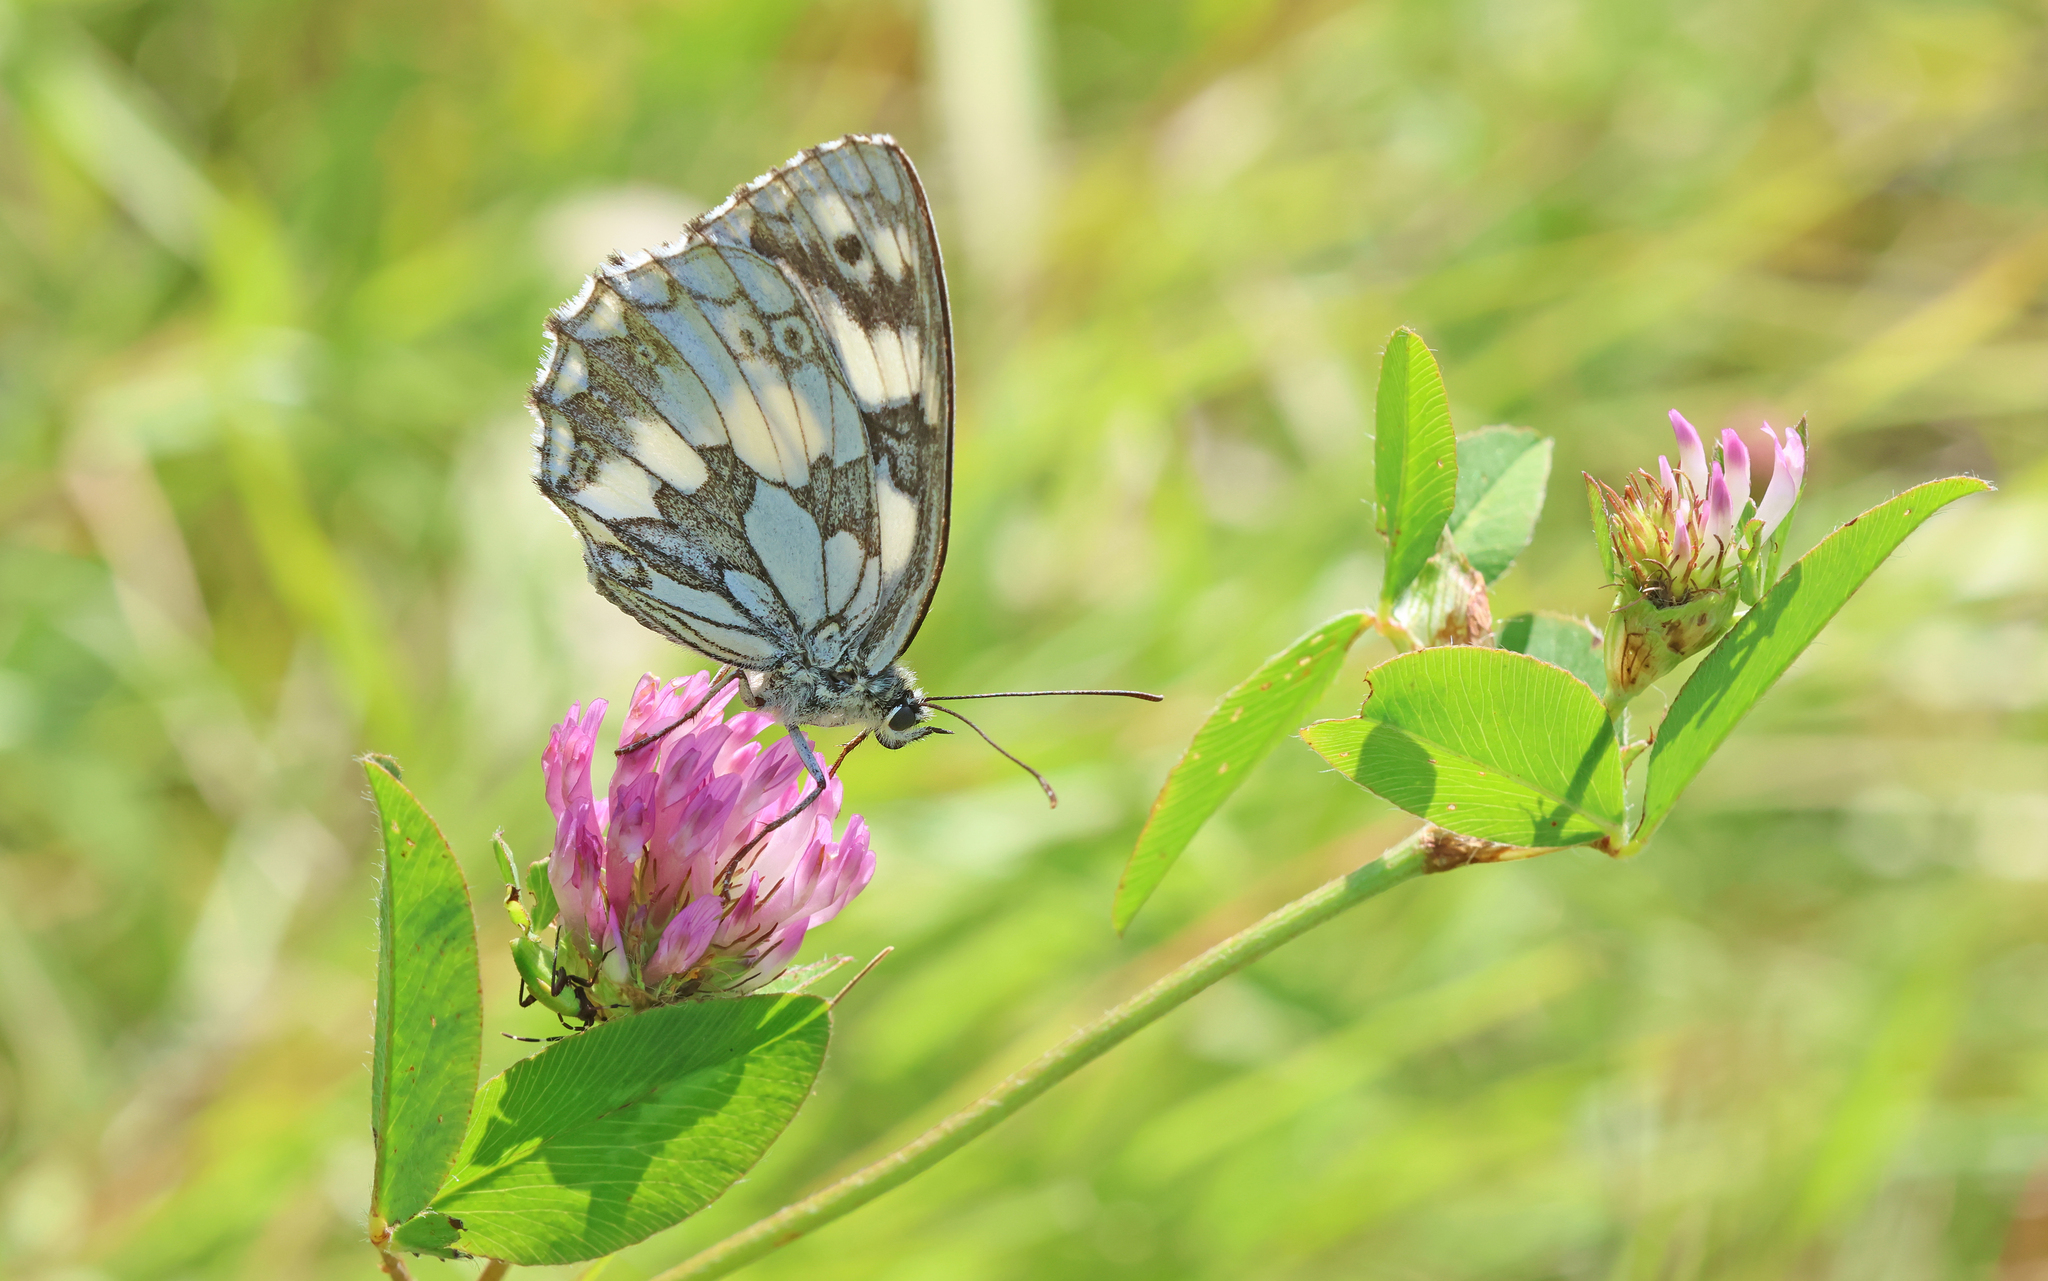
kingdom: Animalia
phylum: Arthropoda
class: Insecta
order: Lepidoptera
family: Nymphalidae
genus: Melanargia
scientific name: Melanargia galathea
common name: Marbled white
